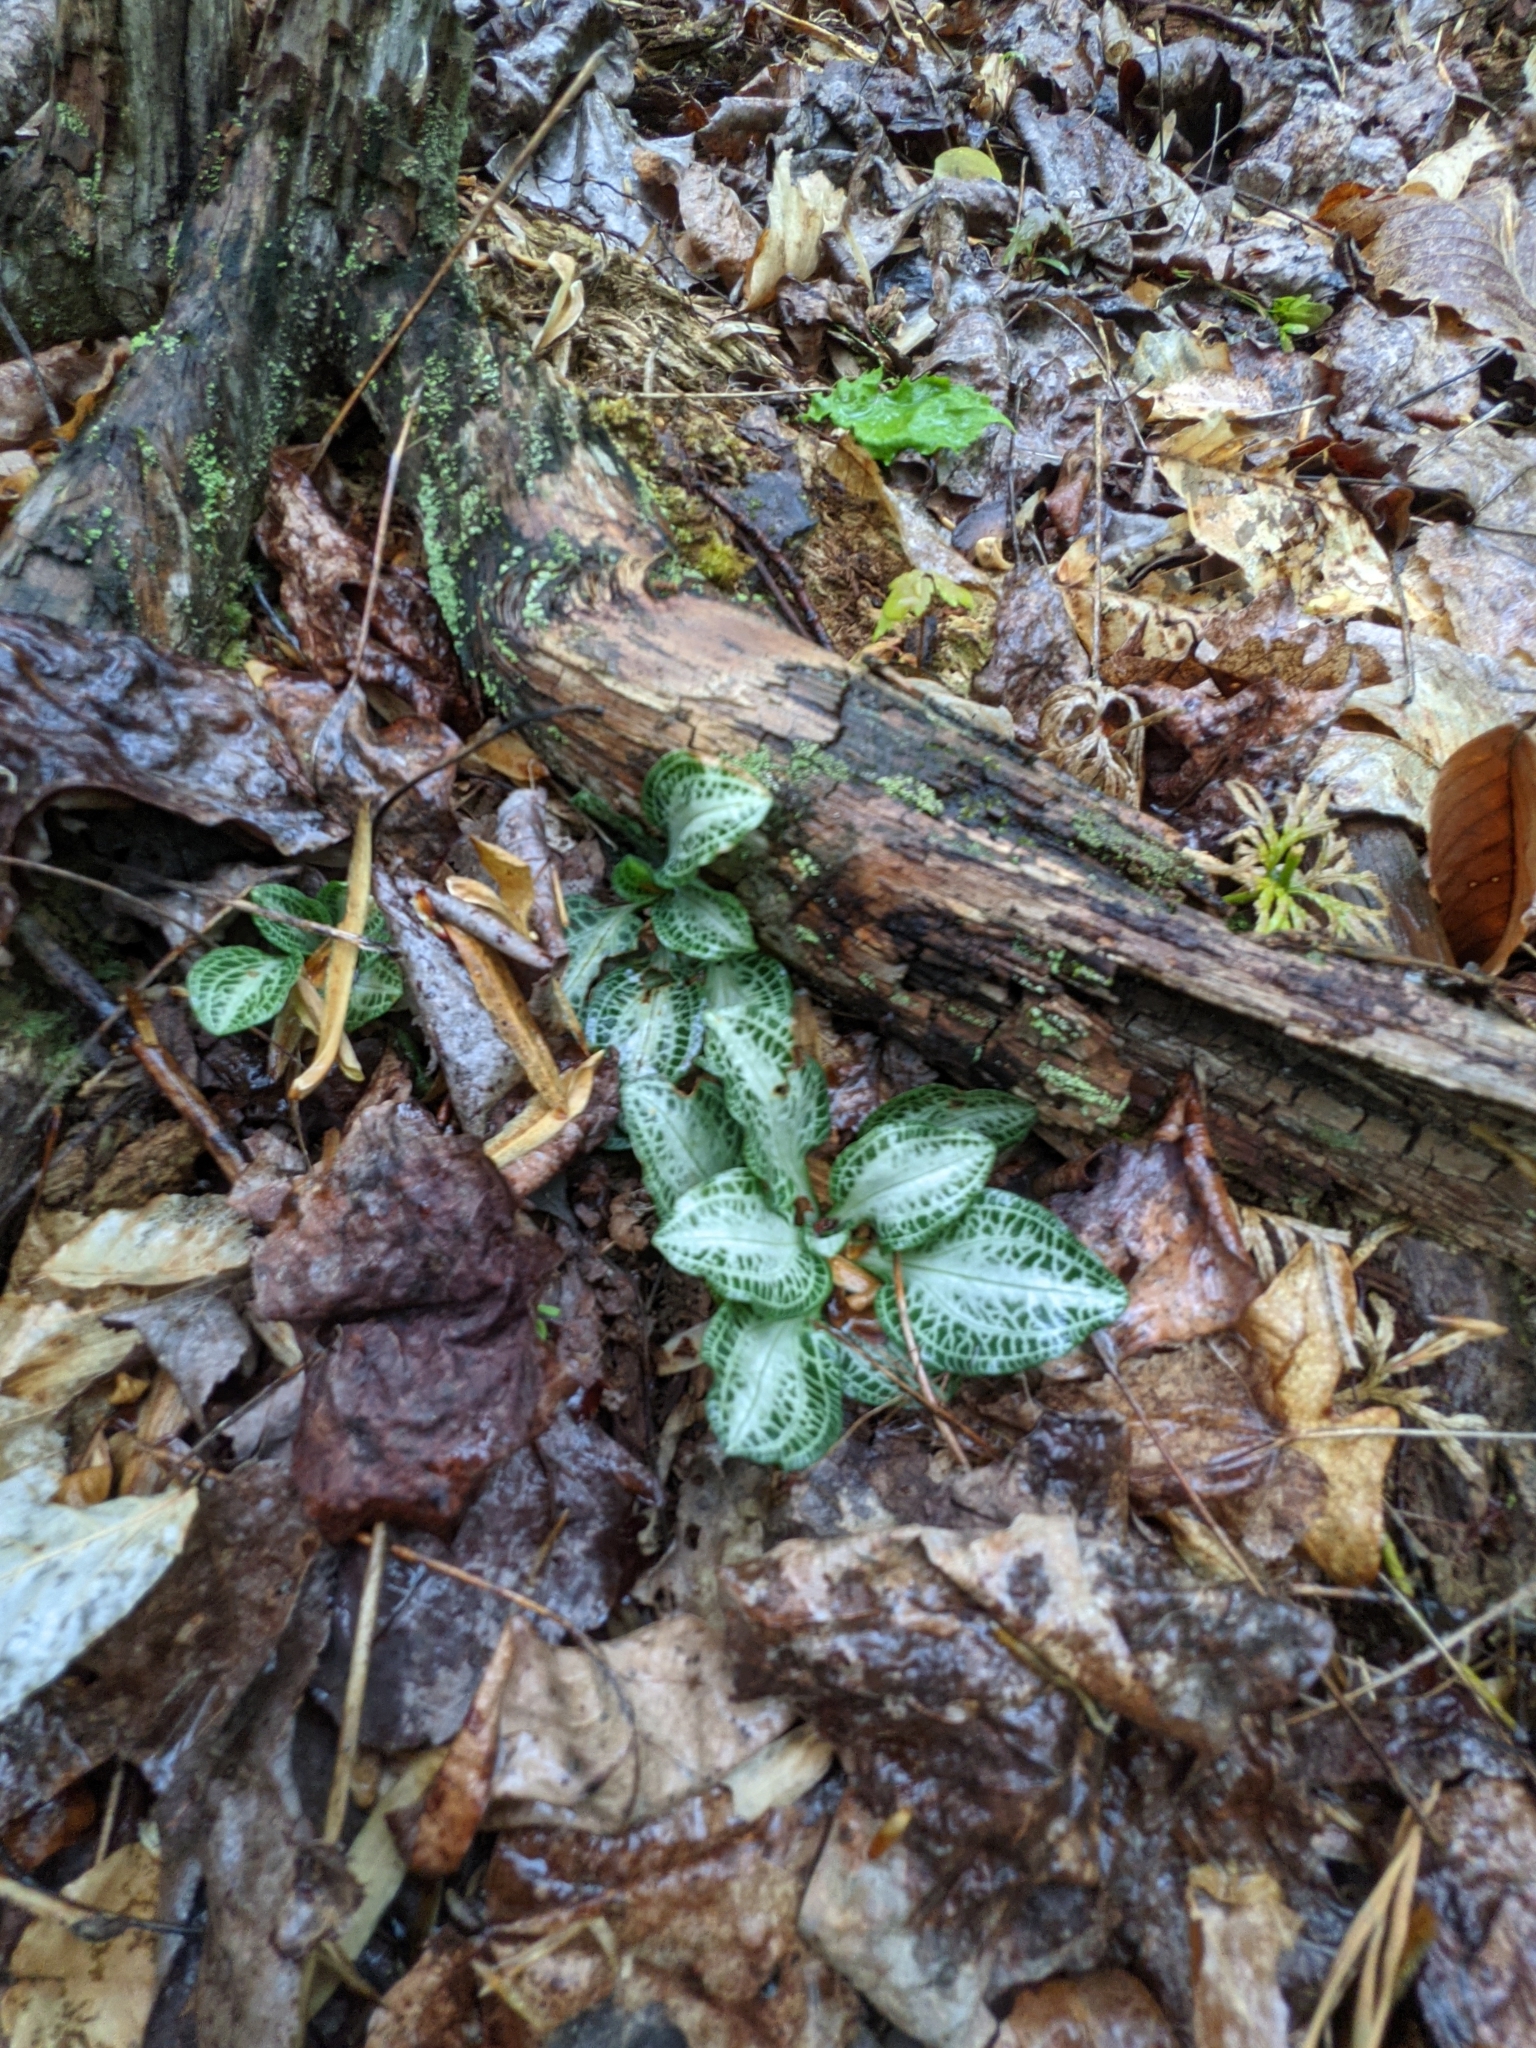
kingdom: Plantae
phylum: Tracheophyta
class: Liliopsida
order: Asparagales
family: Orchidaceae
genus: Goodyera
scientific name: Goodyera pubescens
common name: Downy rattlesnake-plantain
